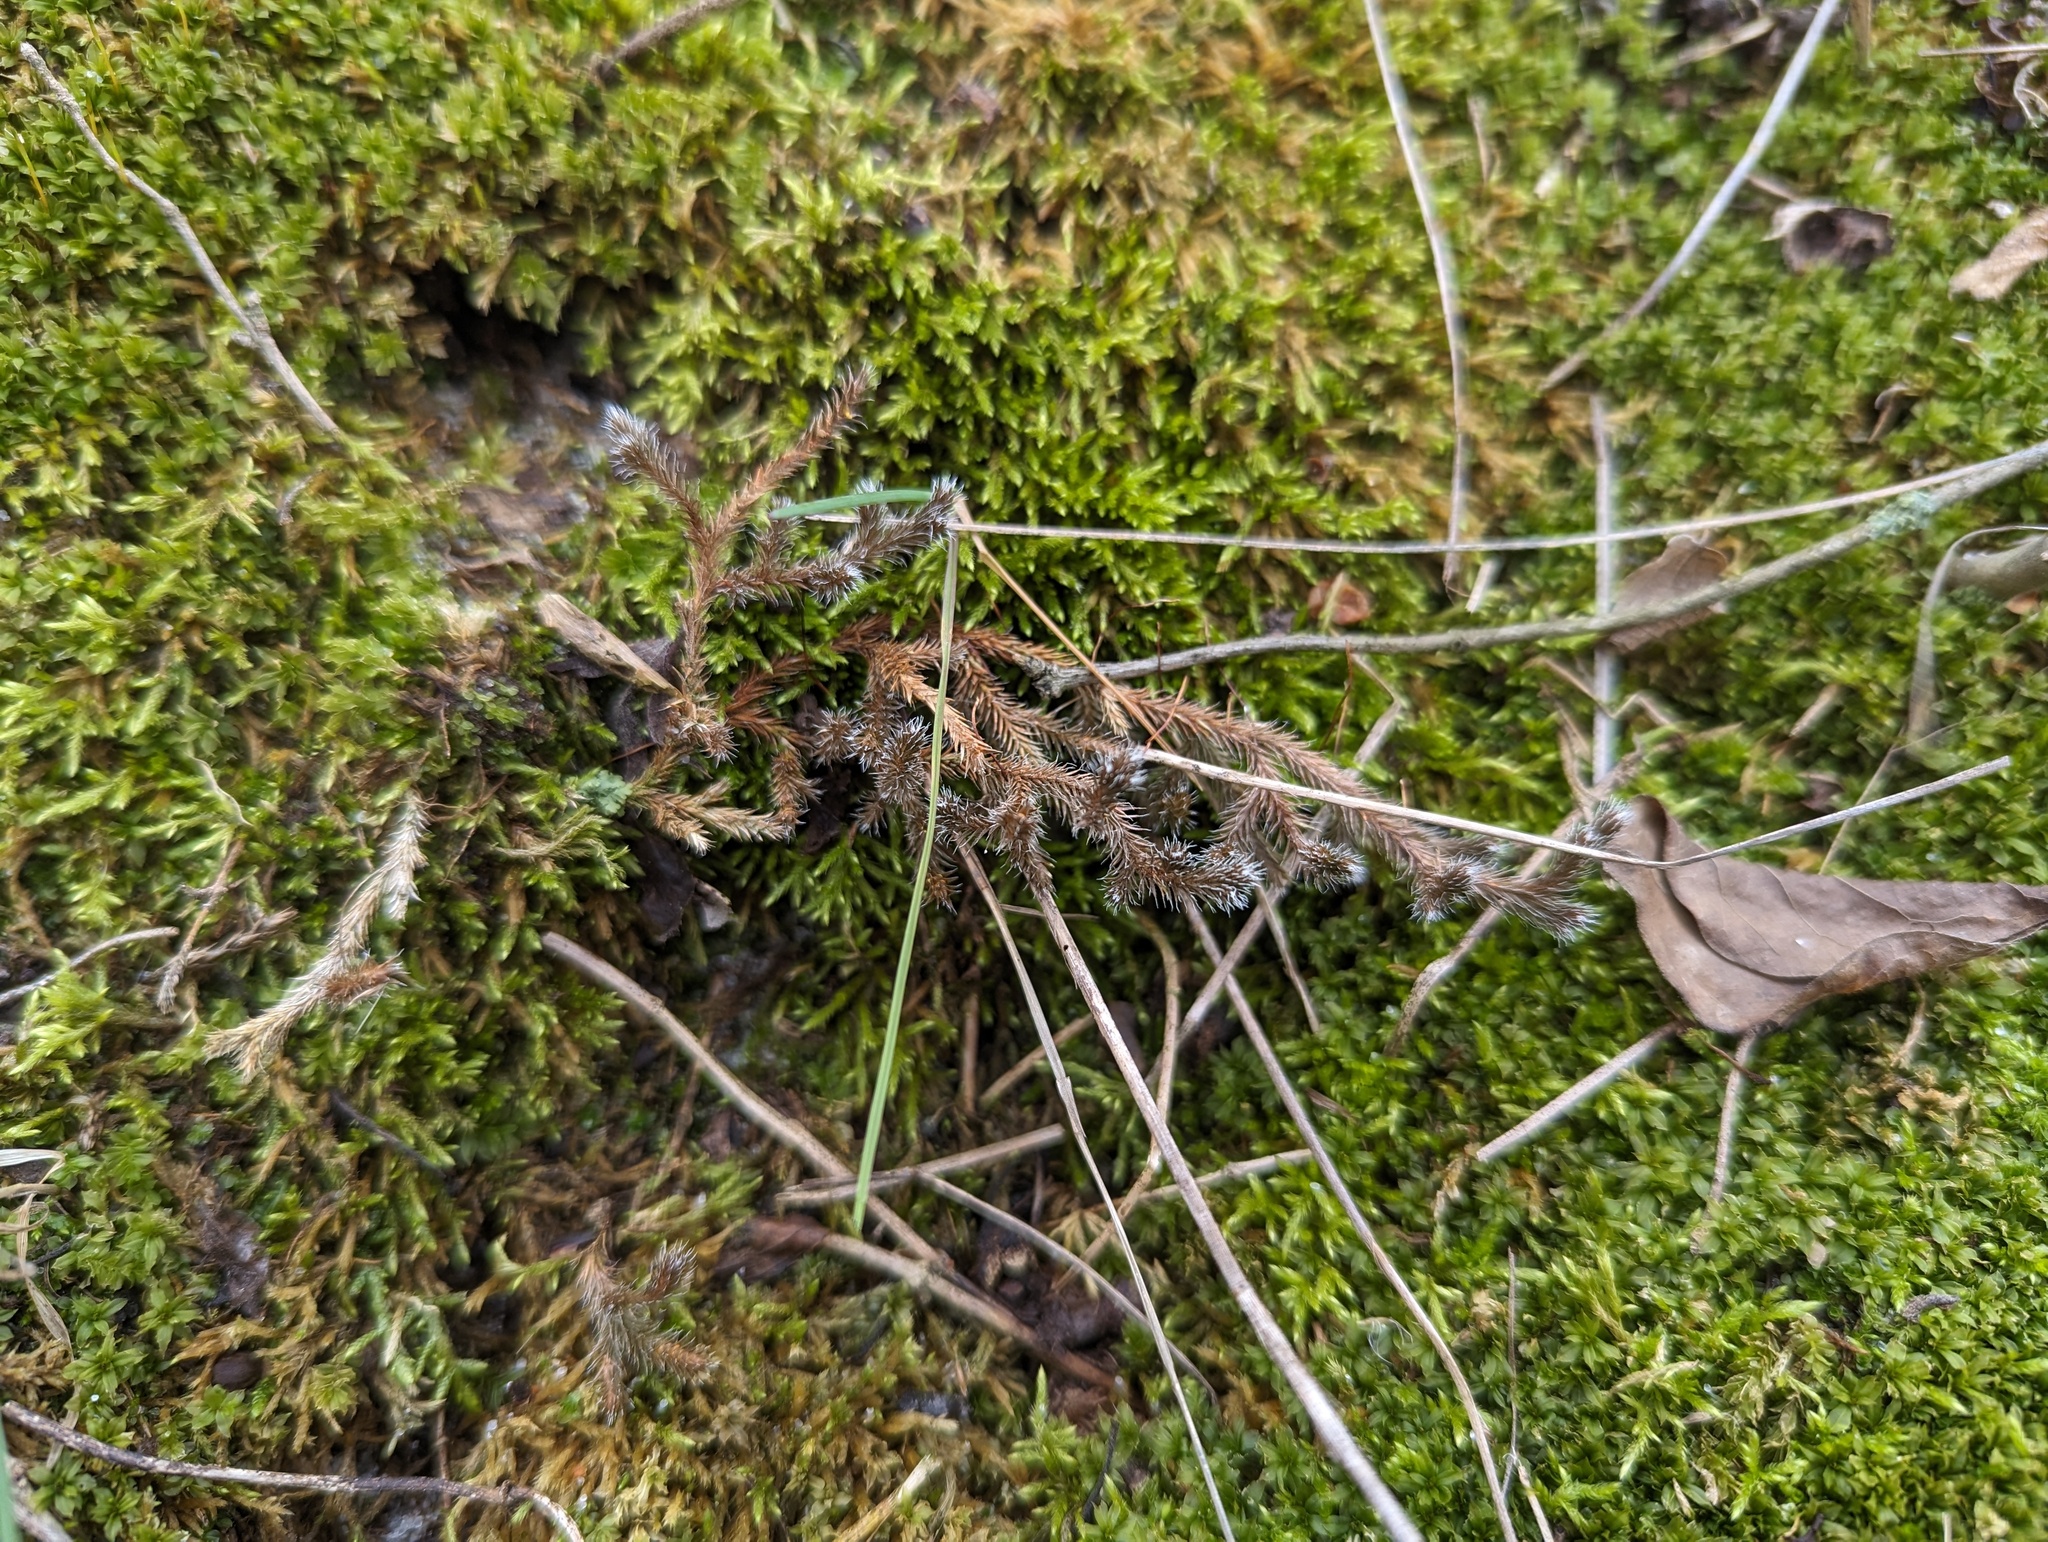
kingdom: Plantae
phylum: Tracheophyta
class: Lycopodiopsida
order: Selaginellales
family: Selaginellaceae
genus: Selaginella
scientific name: Selaginella rupestris
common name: Dwarf spikemoss
